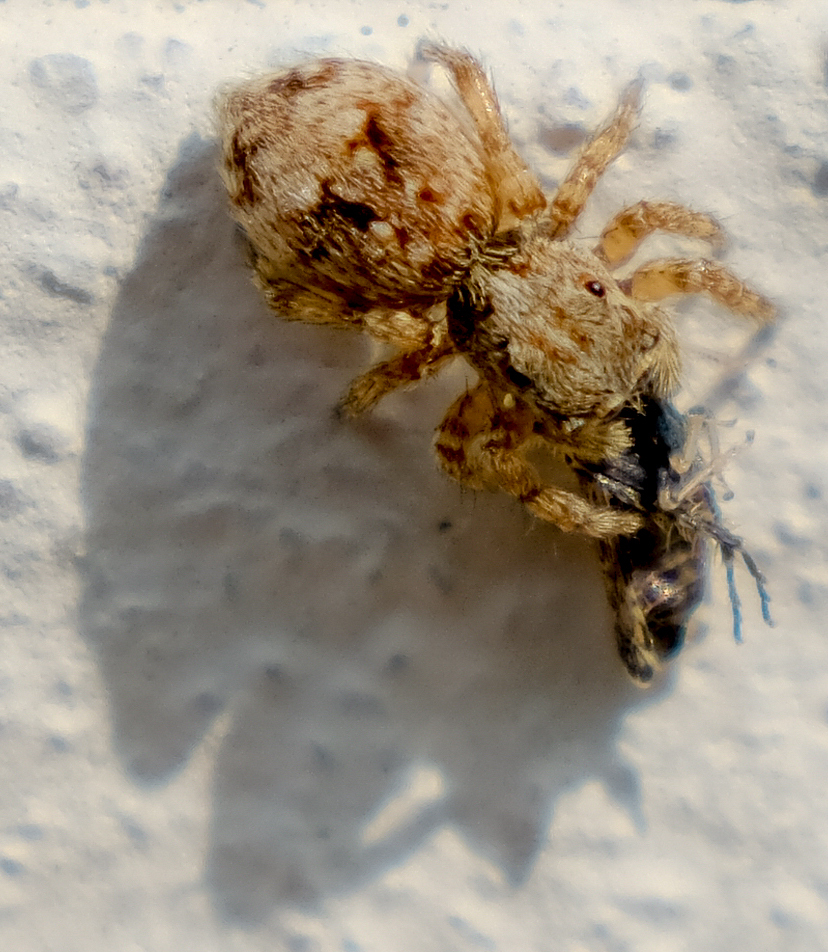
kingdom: Animalia
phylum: Arthropoda
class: Arachnida
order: Araneae
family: Salticidae
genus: Attulus
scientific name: Attulus fasciger
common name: Asiatic wall jumping spider
